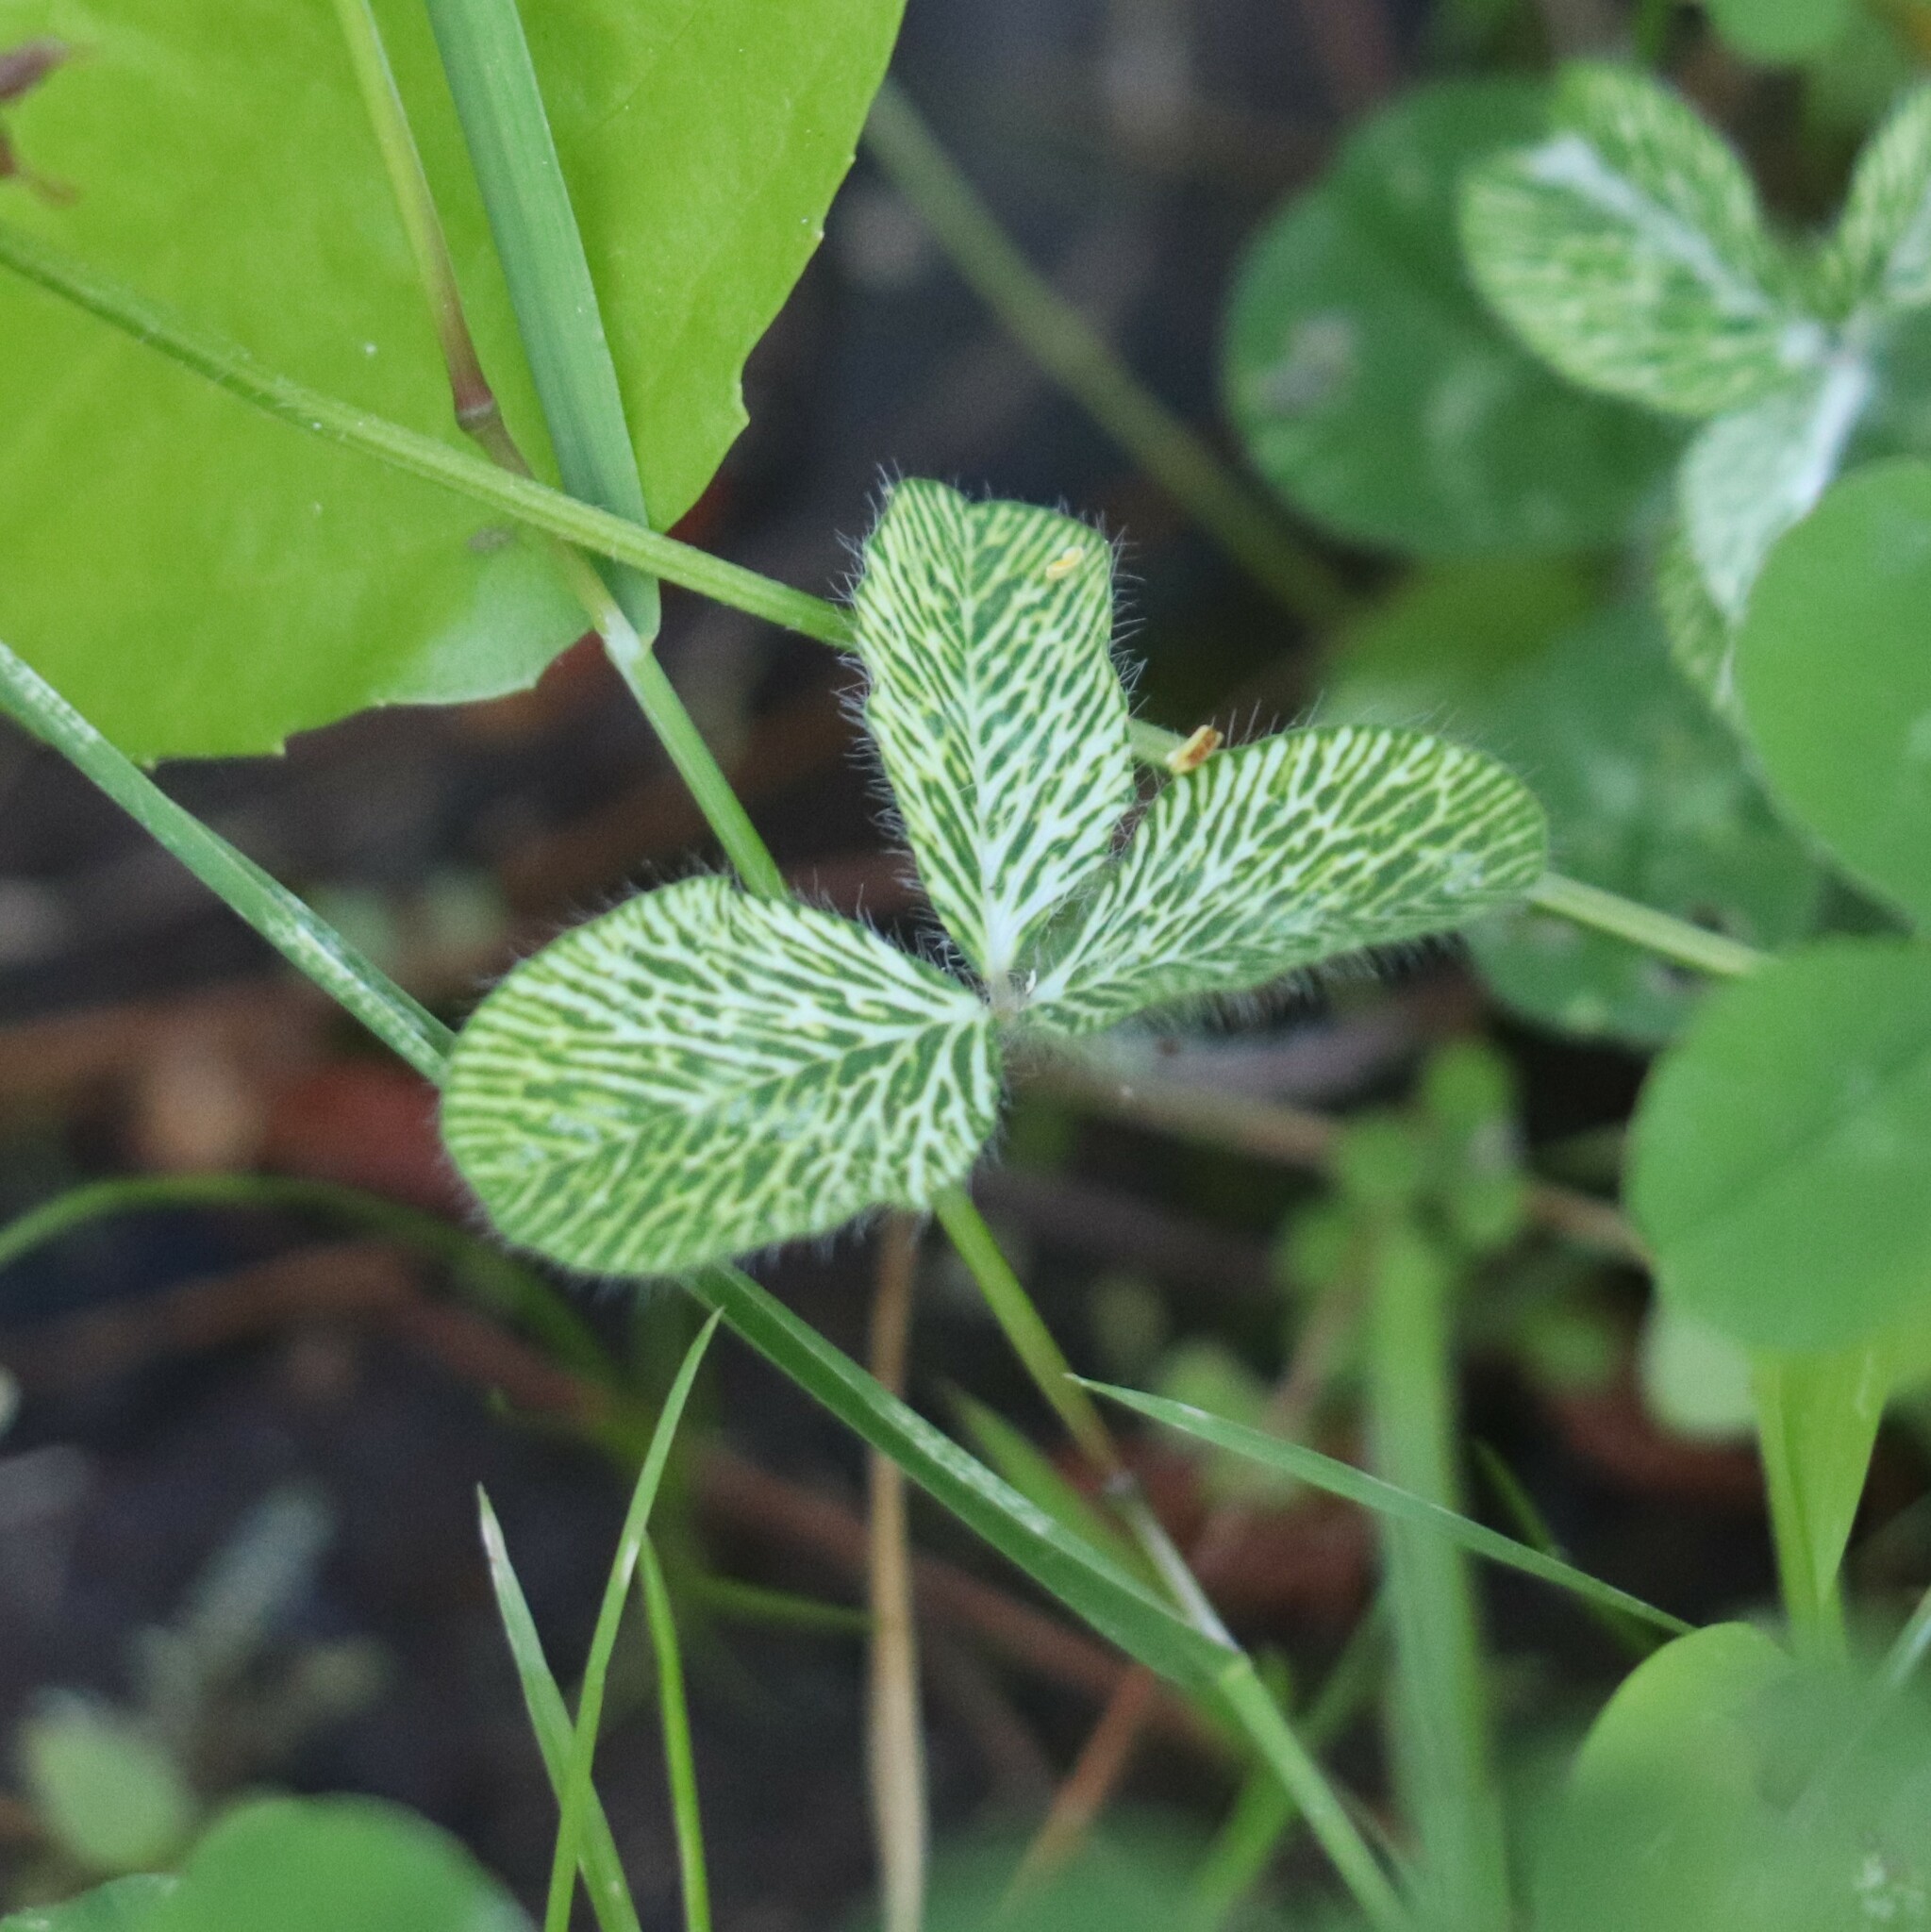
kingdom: Plantae
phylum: Tracheophyta
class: Magnoliopsida
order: Fabales
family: Fabaceae
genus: Trifolium
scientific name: Trifolium pratense
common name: Red clover
